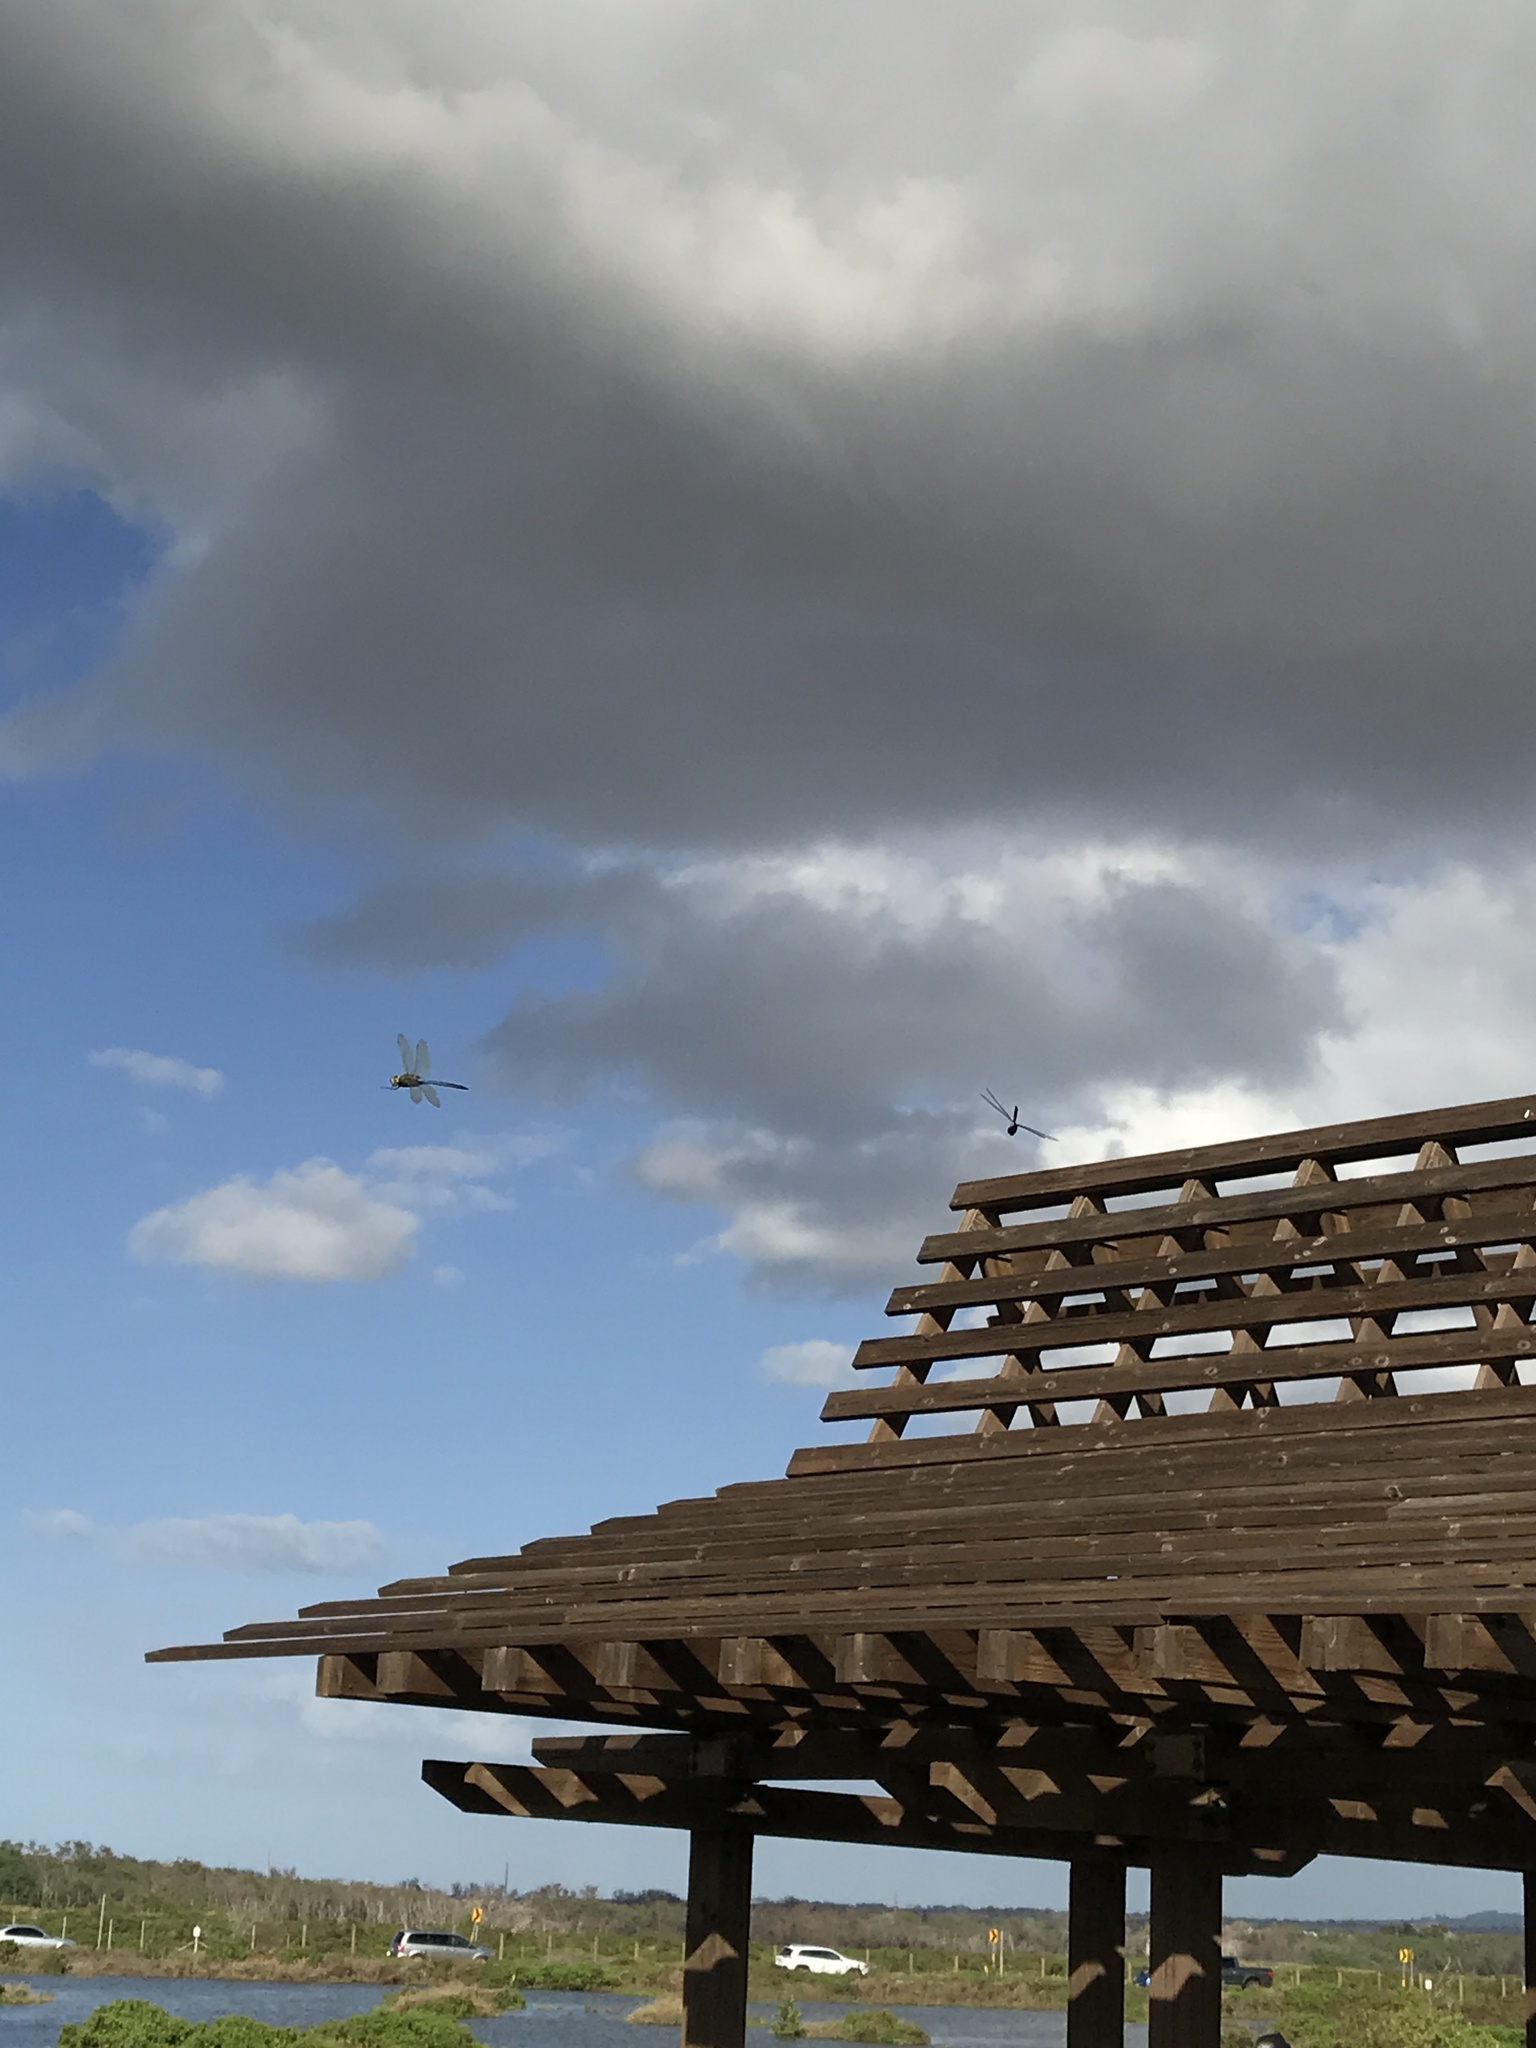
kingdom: Animalia
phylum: Arthropoda
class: Insecta
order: Odonata
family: Aeshnidae
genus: Anax
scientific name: Anax junius
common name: Common green darner
